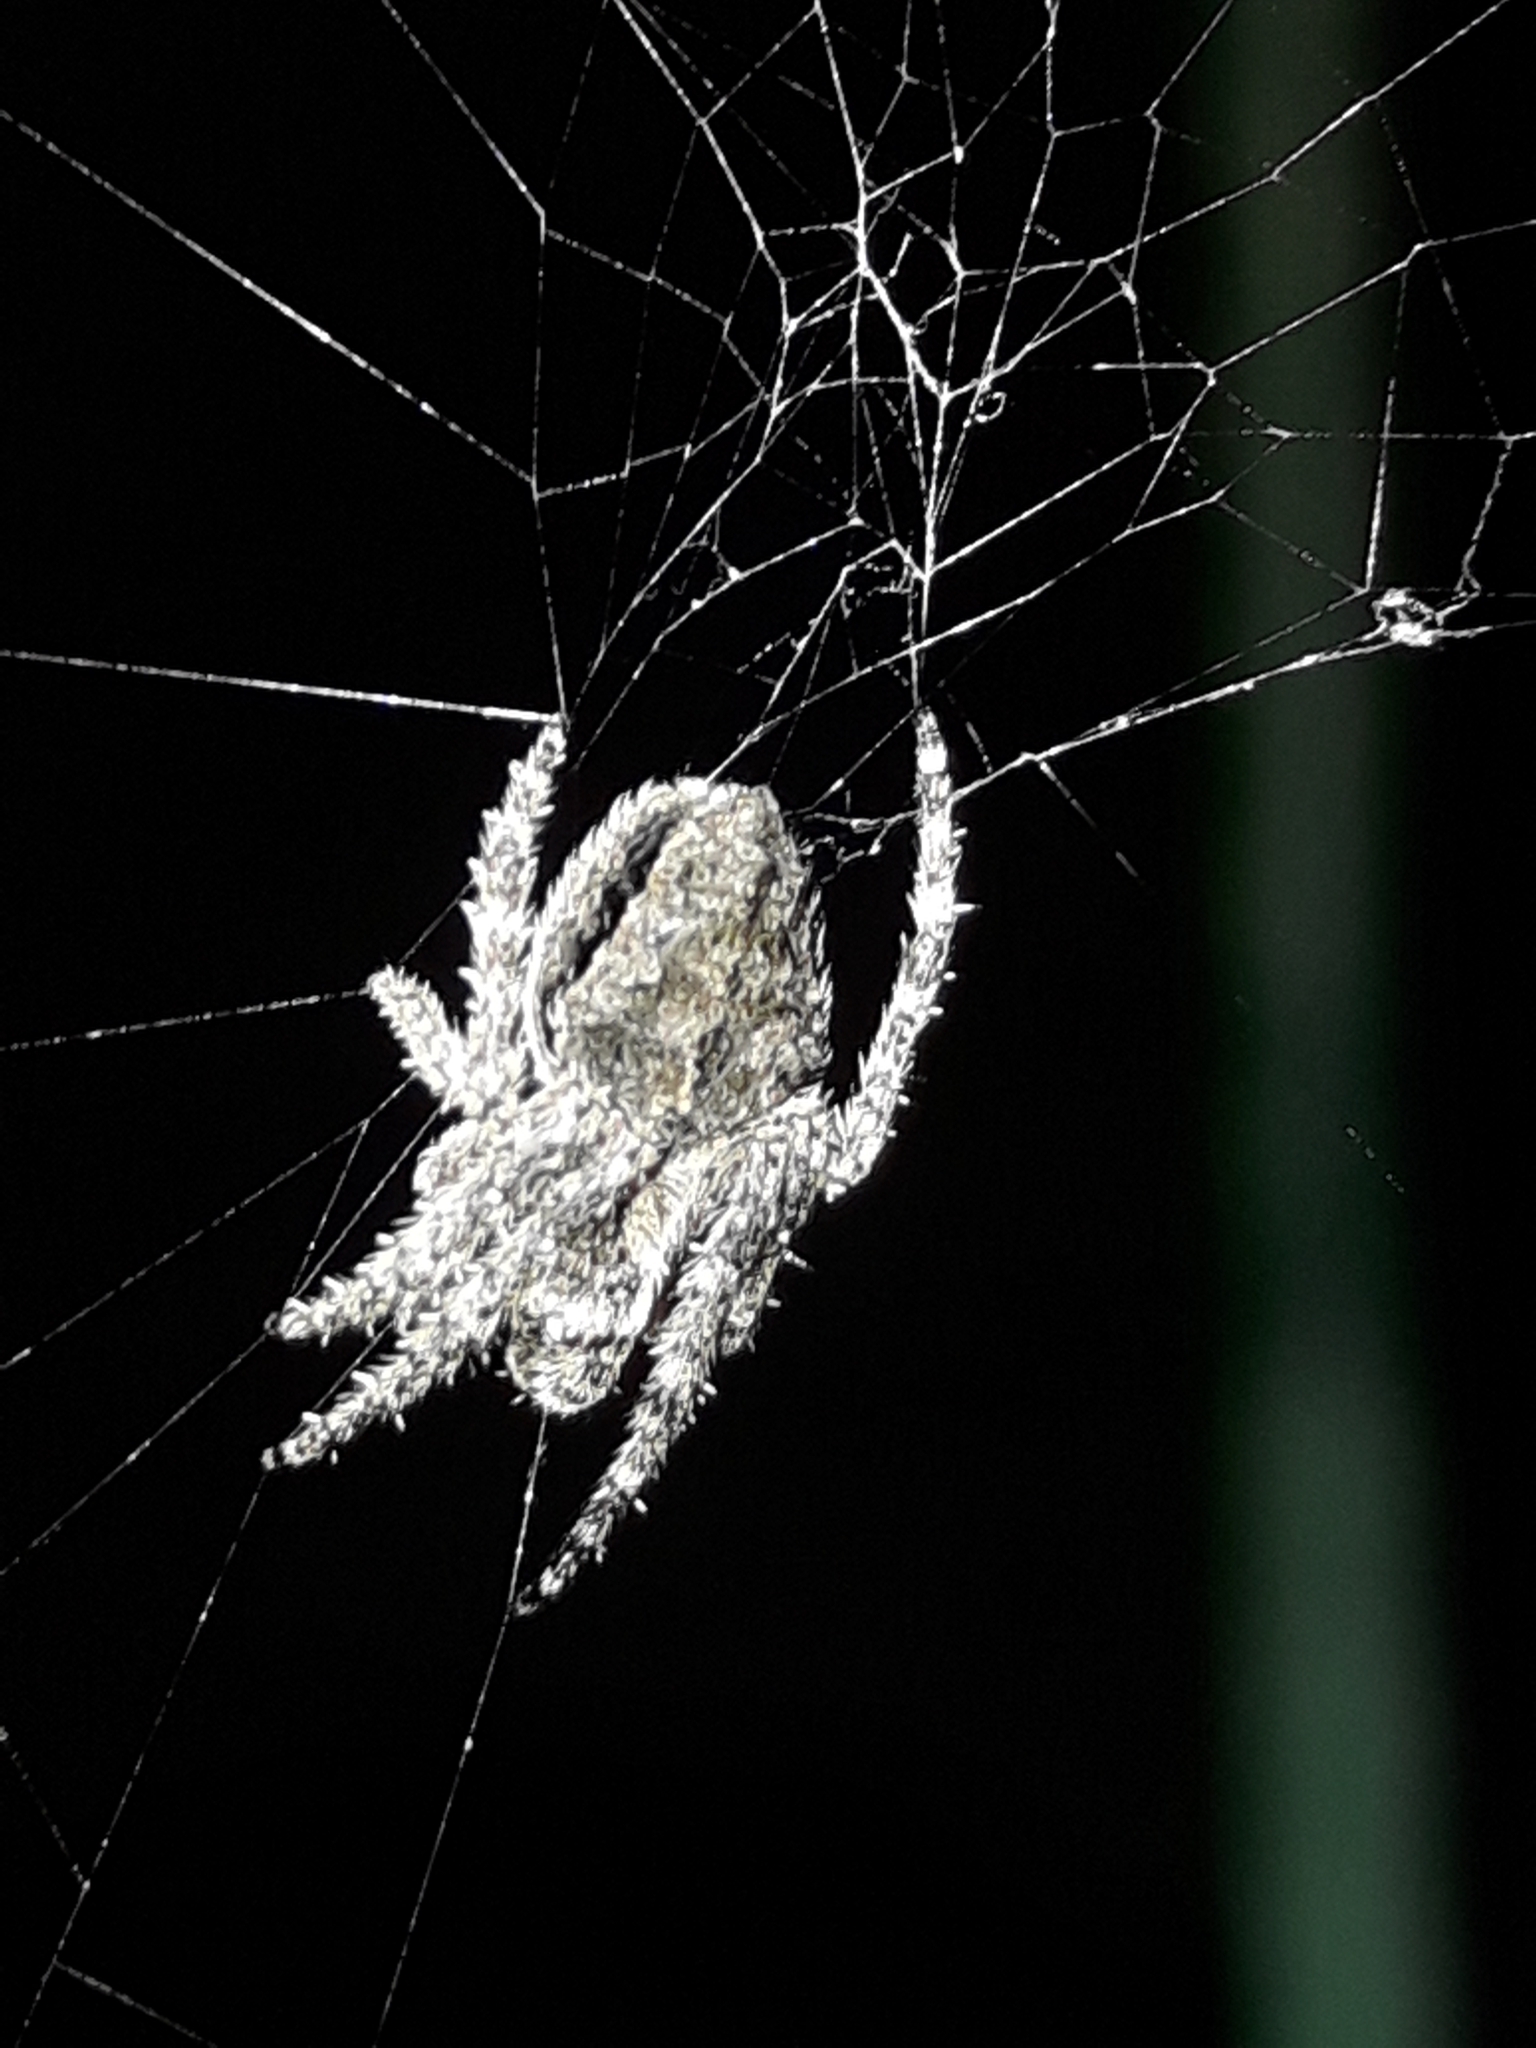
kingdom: Animalia
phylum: Arthropoda
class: Arachnida
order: Araneae
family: Araneidae
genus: Eriophora
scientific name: Eriophora pustulosa
